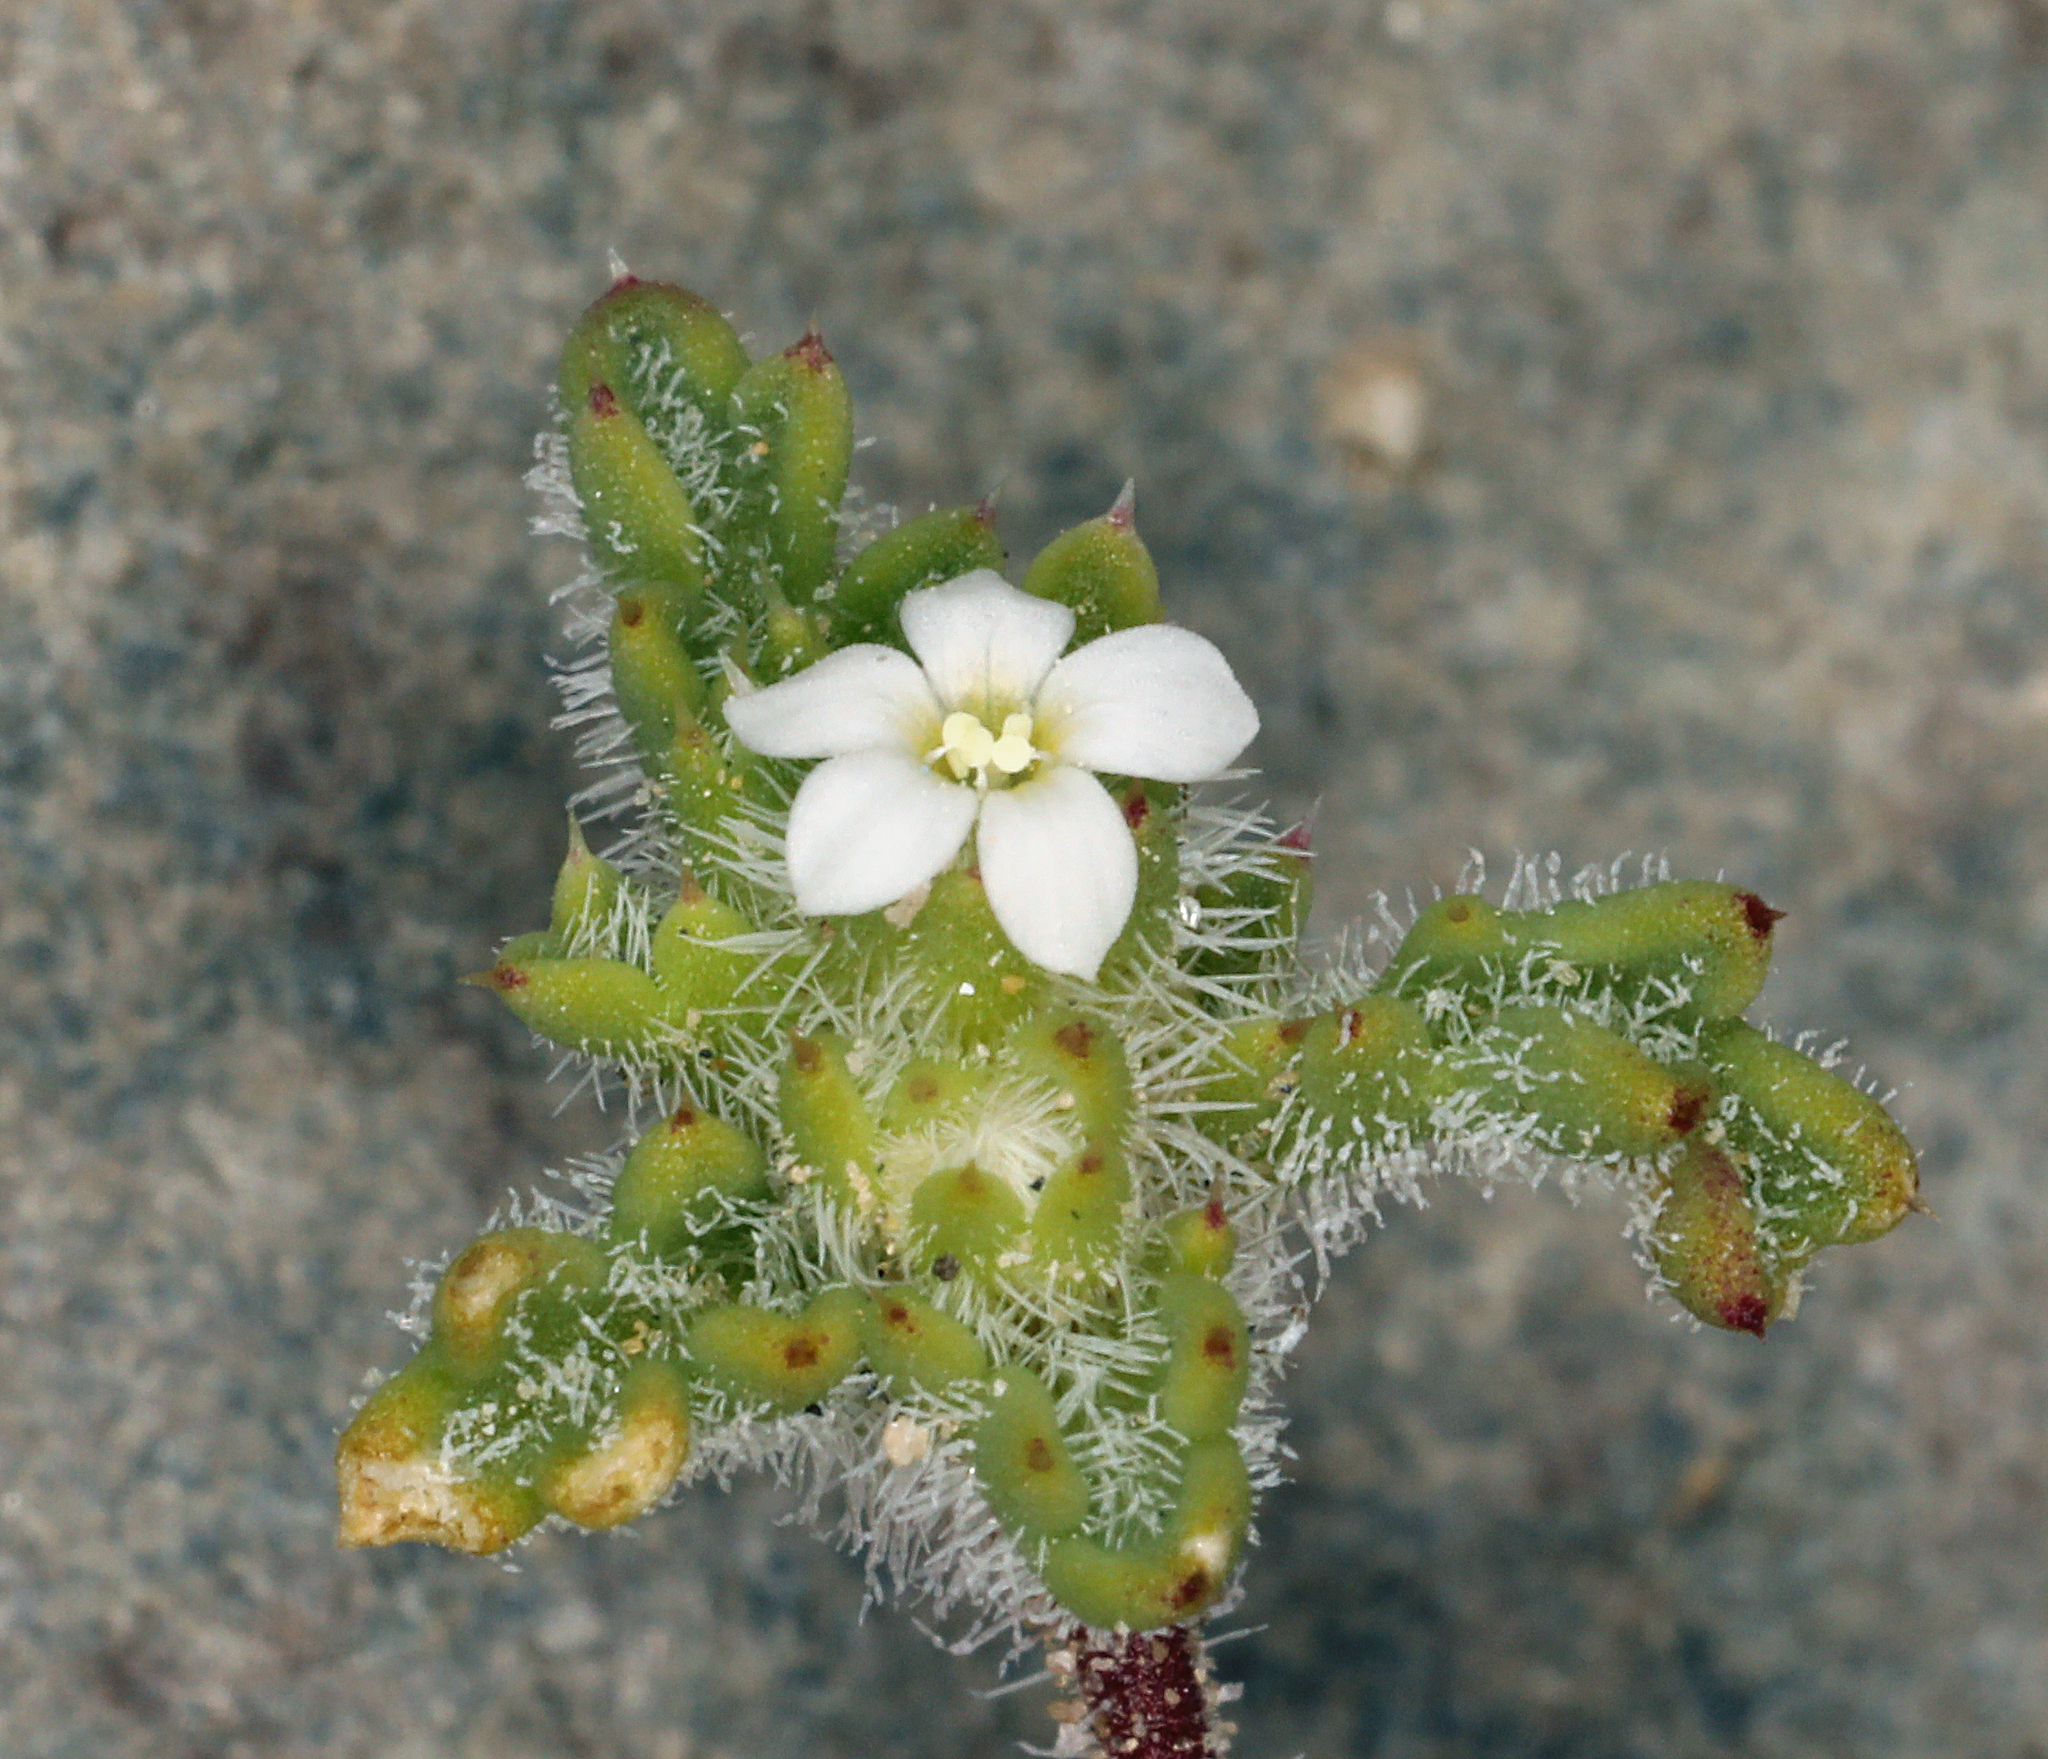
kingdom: Plantae
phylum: Tracheophyta
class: Magnoliopsida
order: Ericales
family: Polemoniaceae
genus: Ipomopsis
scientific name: Ipomopsis polycladon
